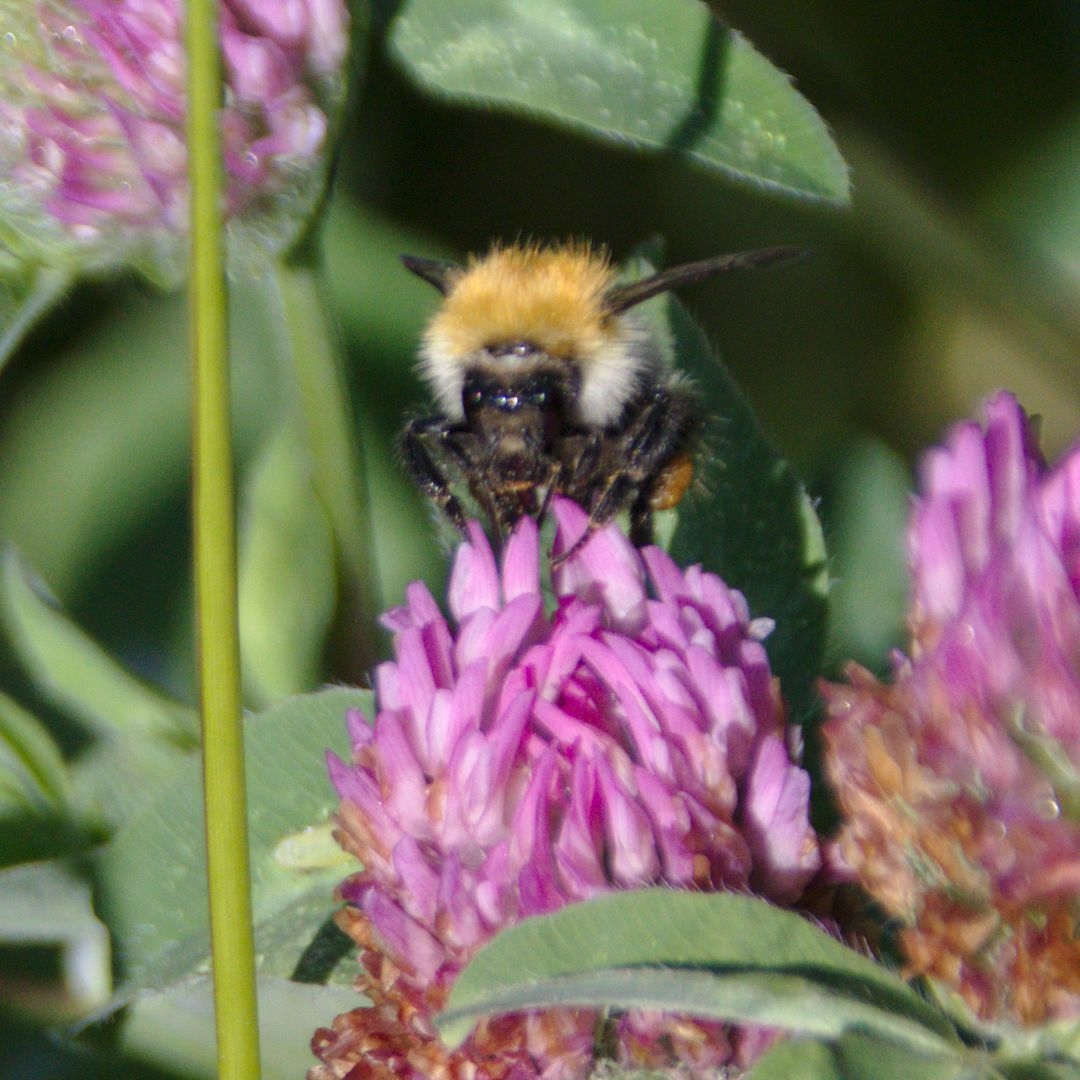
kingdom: Animalia
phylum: Arthropoda
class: Insecta
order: Hymenoptera
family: Apidae
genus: Bombus
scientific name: Bombus pascuorum
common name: Common carder bee
